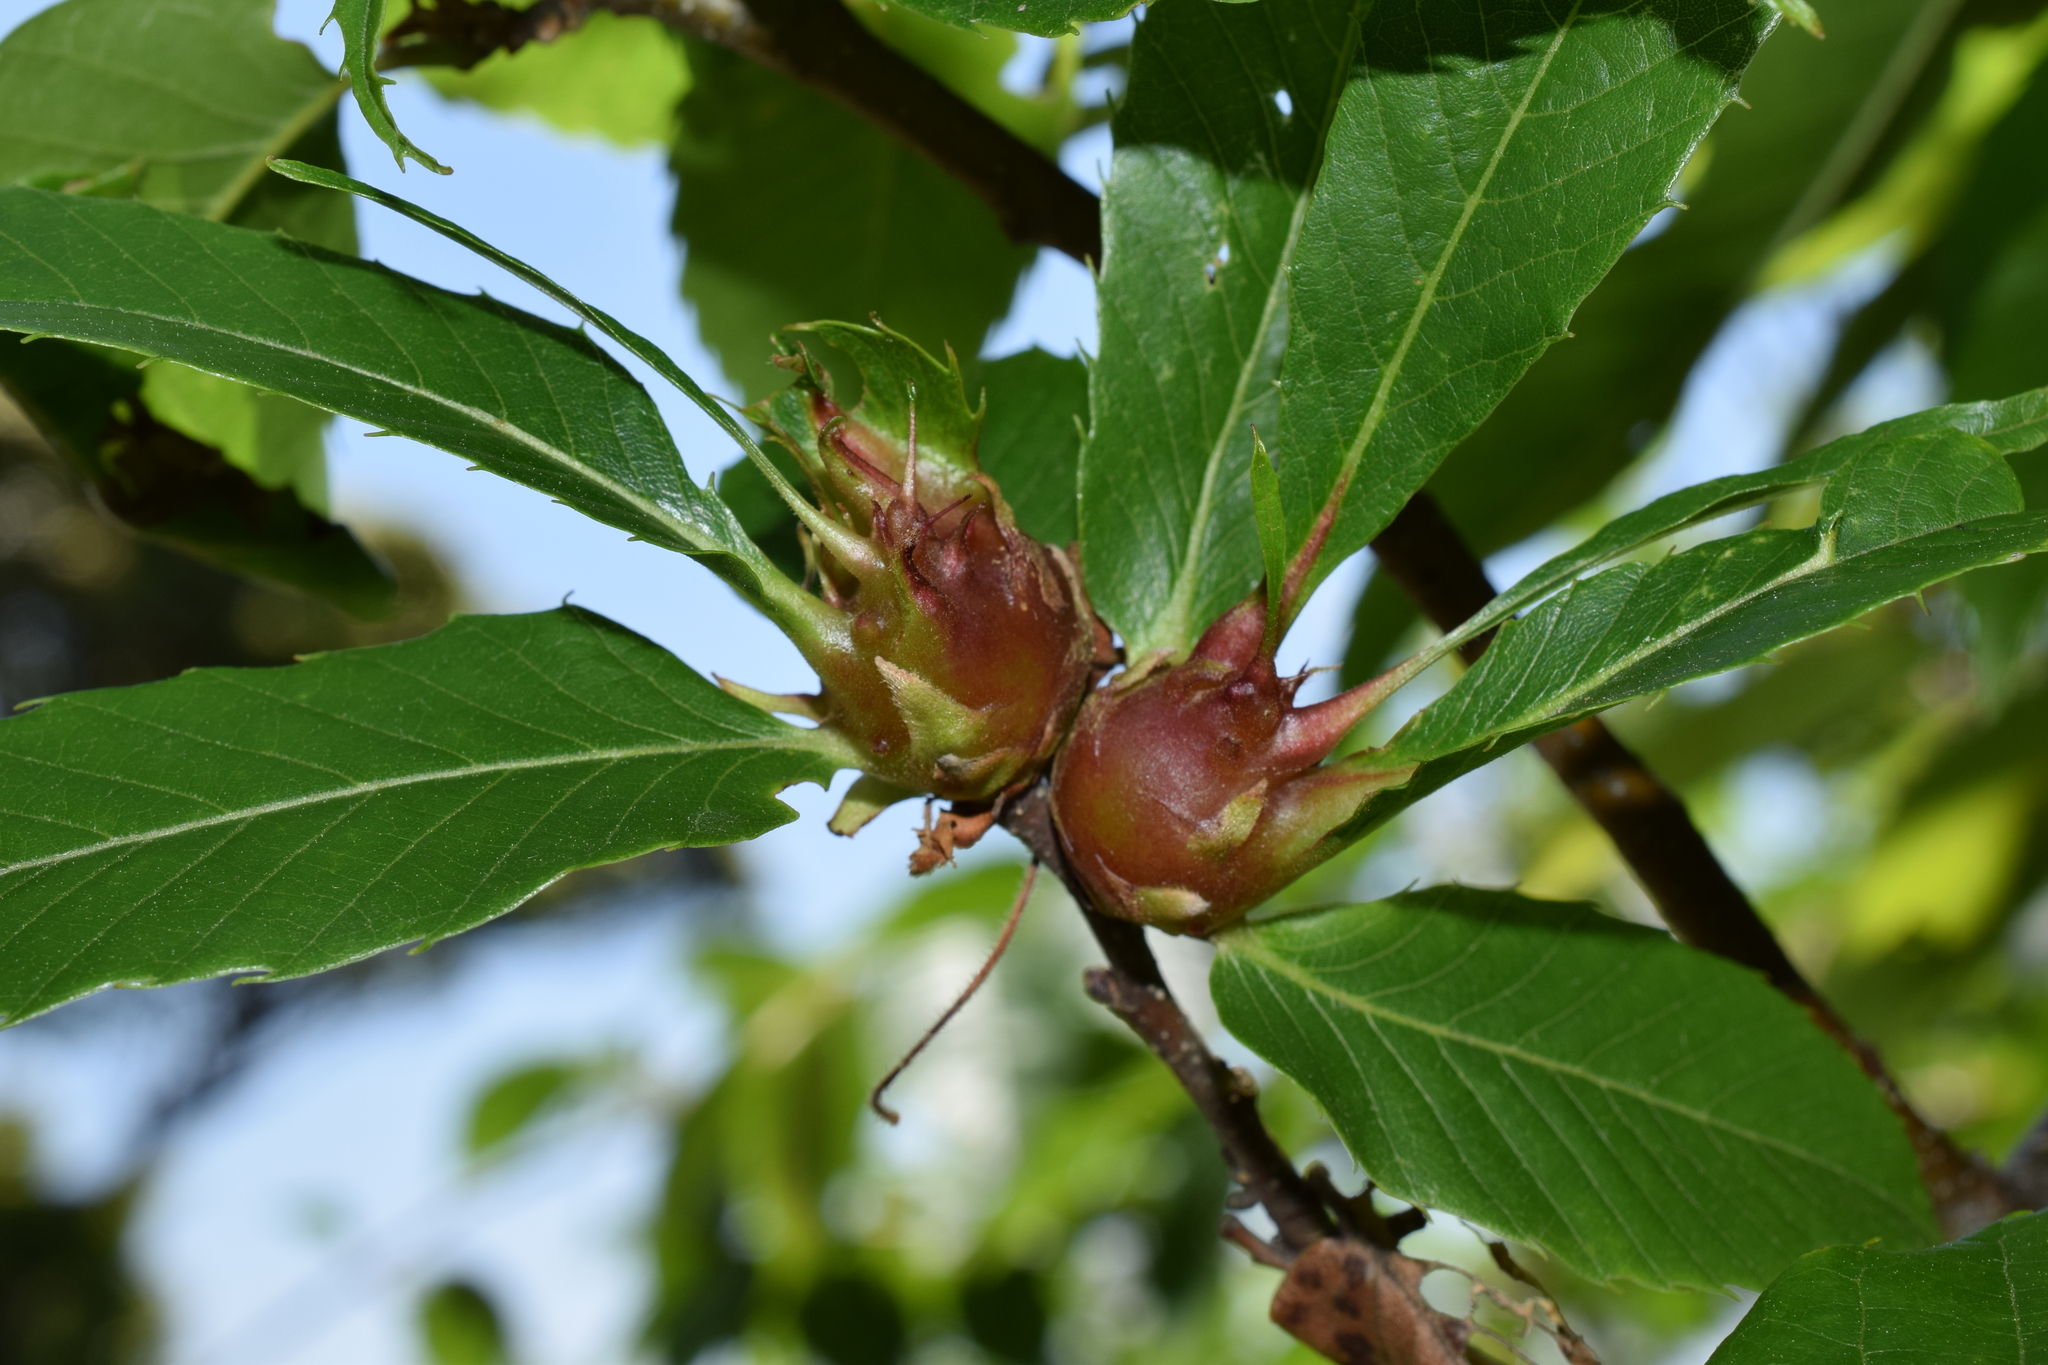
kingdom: Animalia
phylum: Arthropoda
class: Insecta
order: Hymenoptera
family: Cynipidae
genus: Dryocosmus
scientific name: Dryocosmus kuriphilus
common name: Asian chestnut gall wasp
